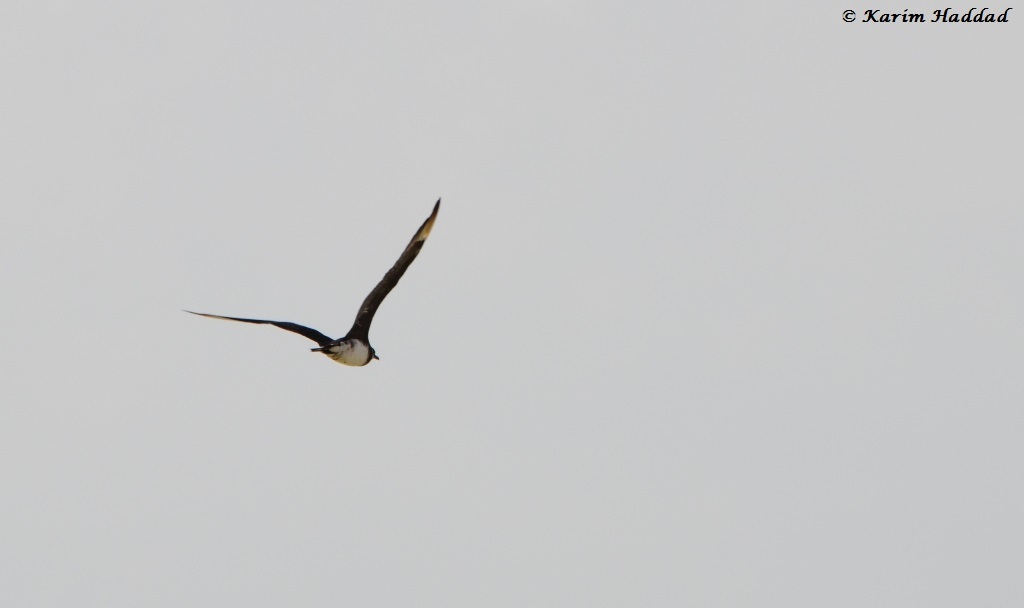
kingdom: Animalia
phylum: Chordata
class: Aves
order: Charadriiformes
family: Stercorariidae
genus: Stercorarius
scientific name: Stercorarius parasiticus
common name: Parasitic jaeger
